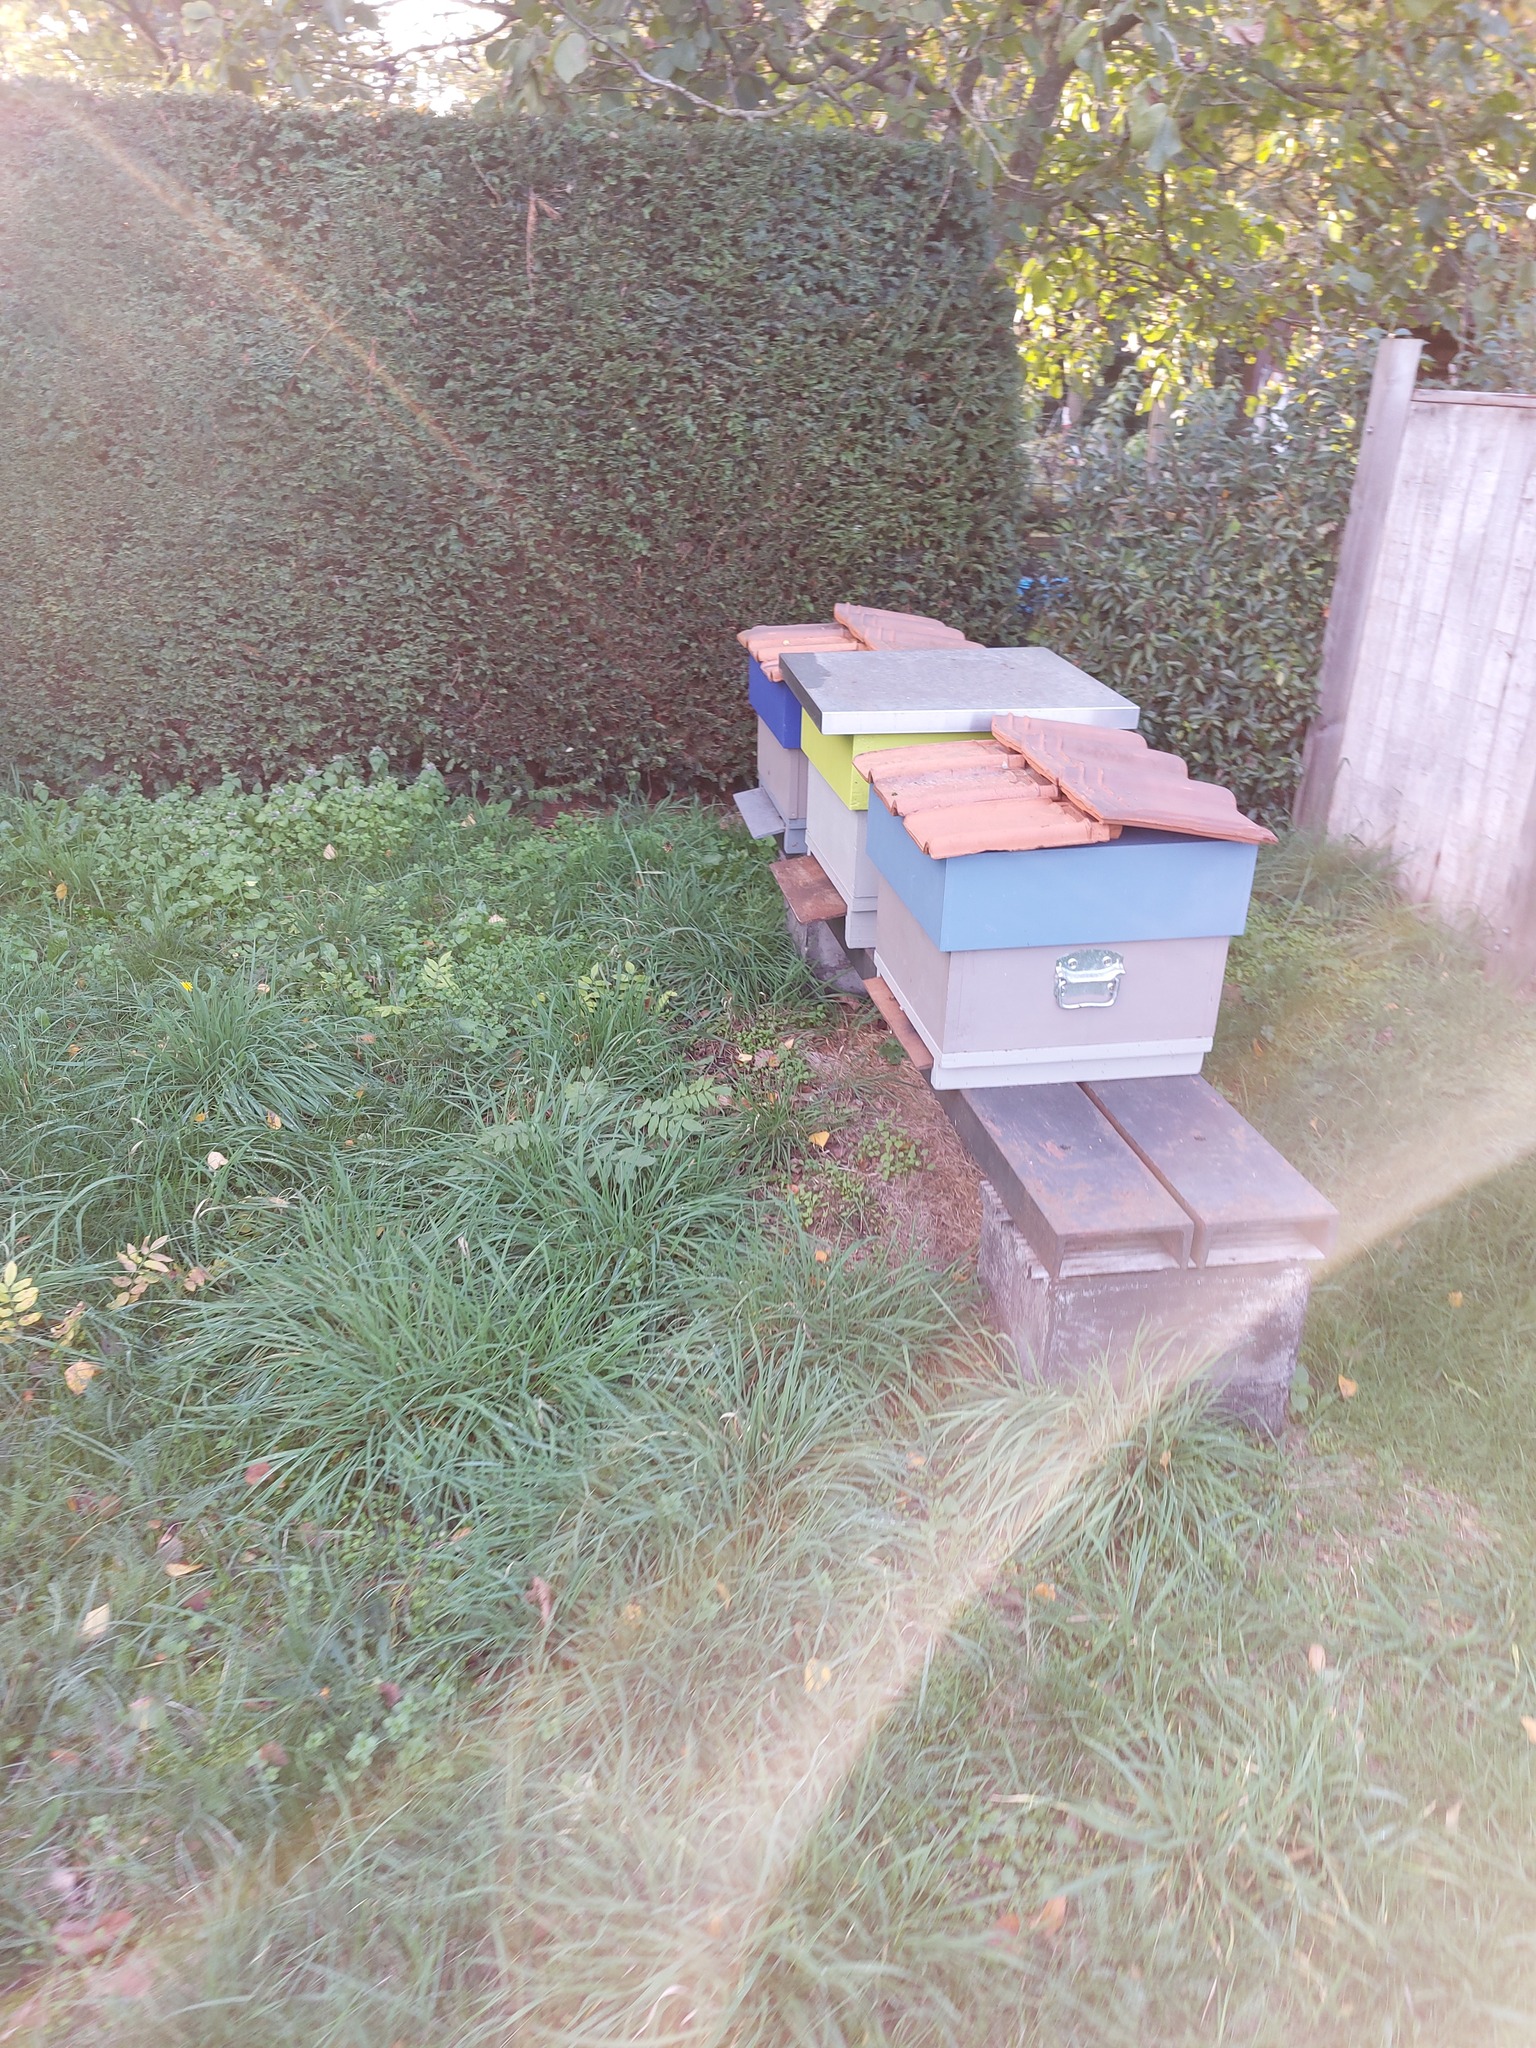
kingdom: Animalia
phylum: Arthropoda
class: Insecta
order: Hymenoptera
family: Vespidae
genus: Vespa
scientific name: Vespa velutina
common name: Asian hornet
